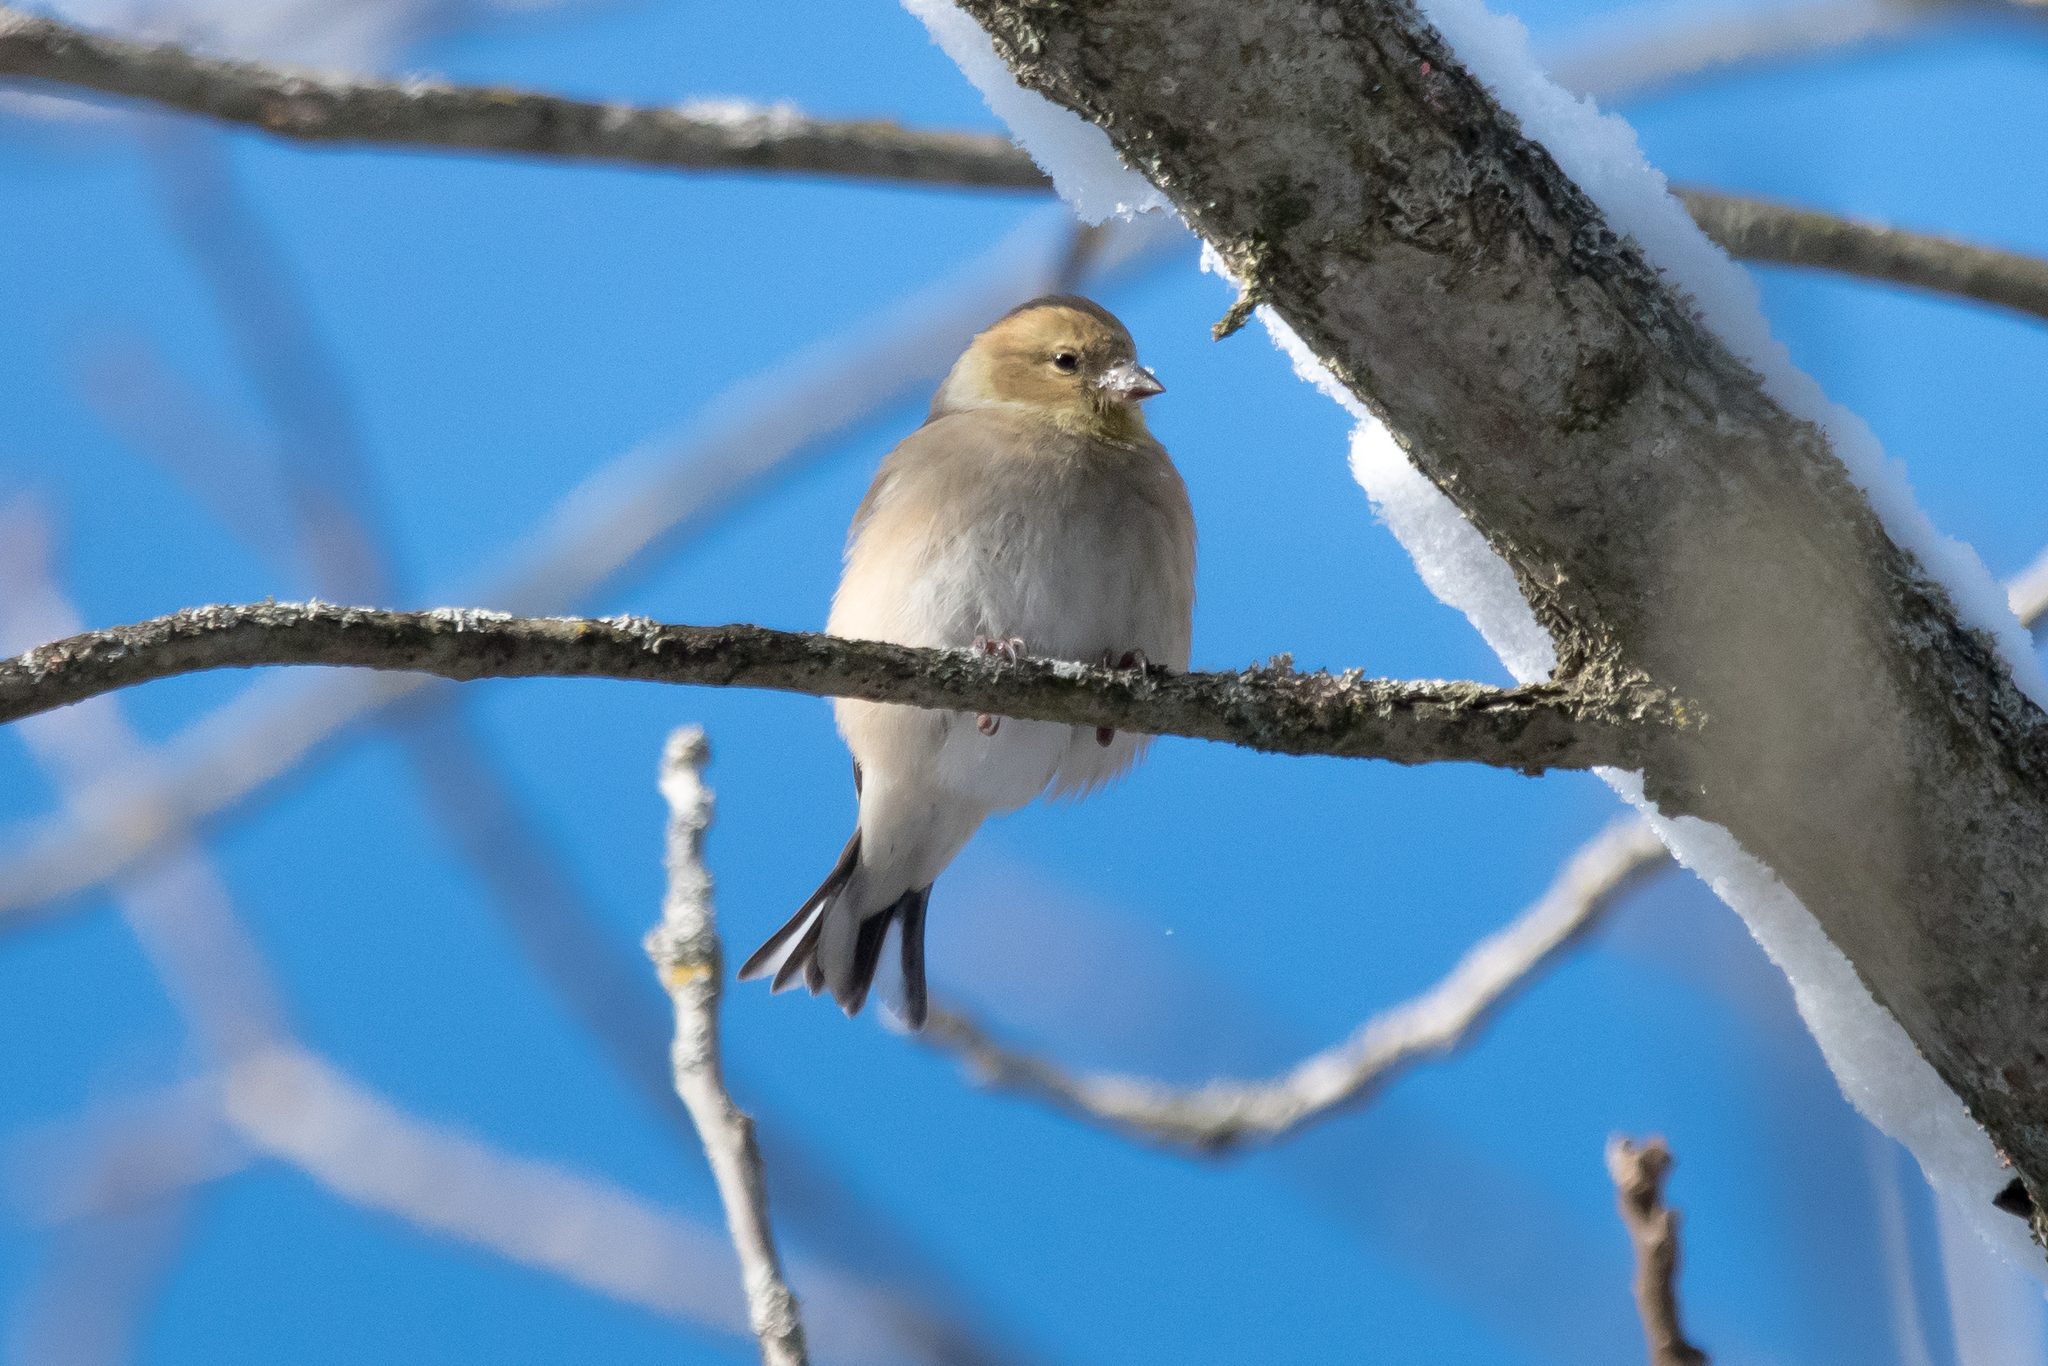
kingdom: Animalia
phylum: Chordata
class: Aves
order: Passeriformes
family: Fringillidae
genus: Spinus
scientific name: Spinus tristis
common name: American goldfinch
